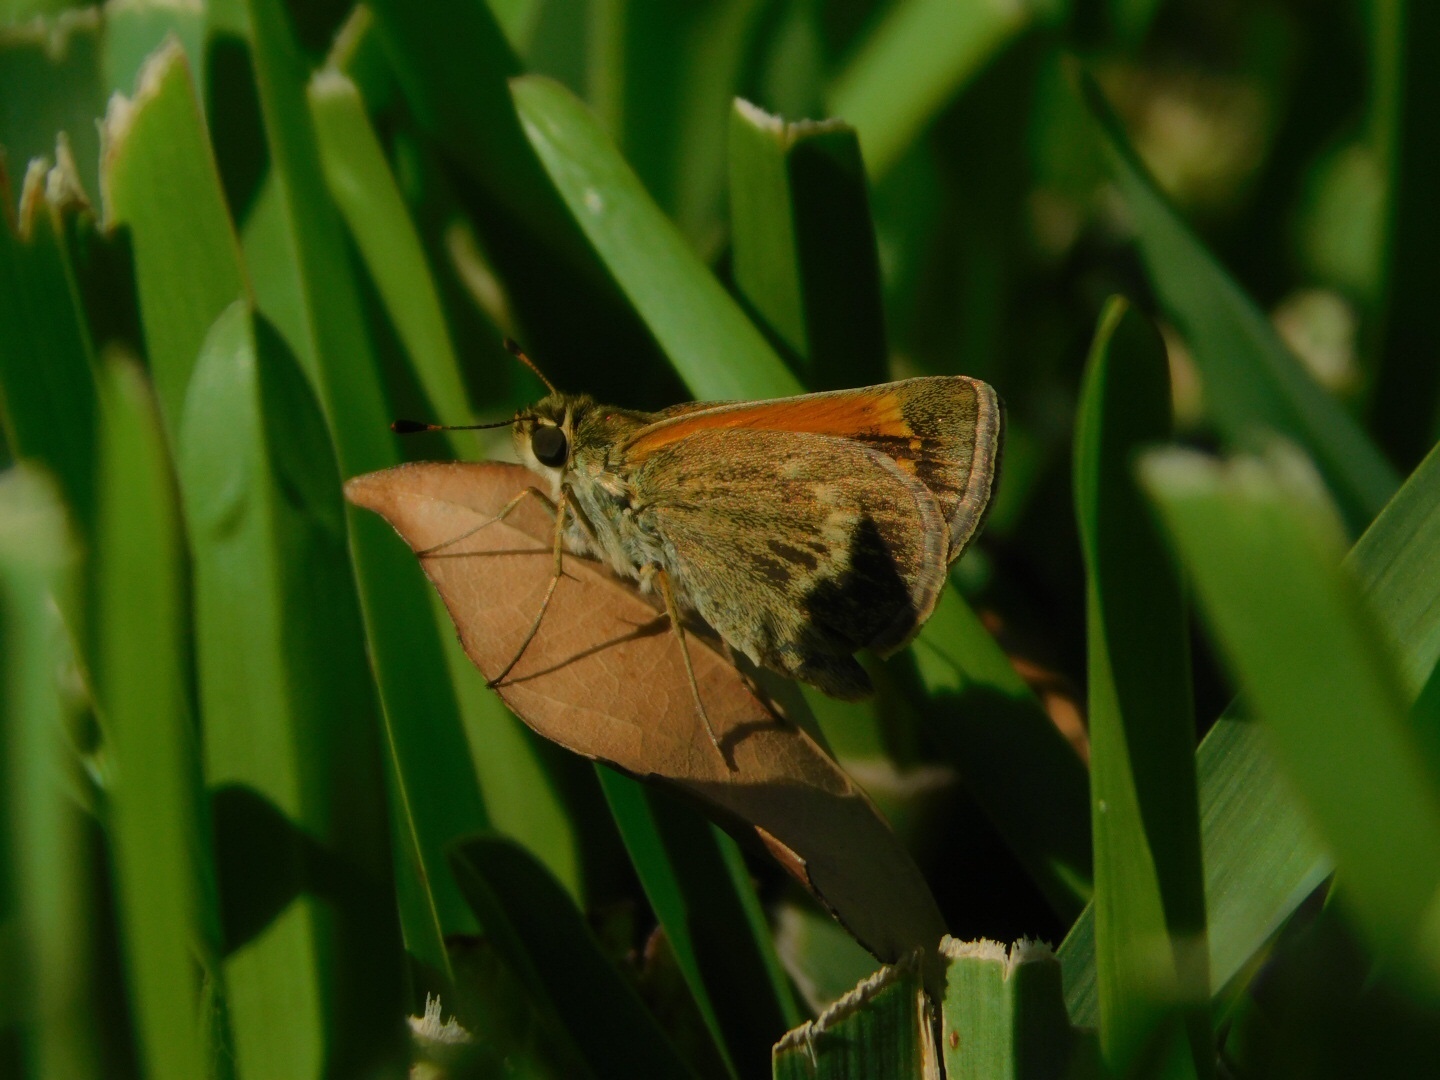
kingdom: Animalia
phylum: Arthropoda
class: Insecta
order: Lepidoptera
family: Hesperiidae
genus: Polites
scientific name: Polites baracoa
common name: Baracoa skipper
